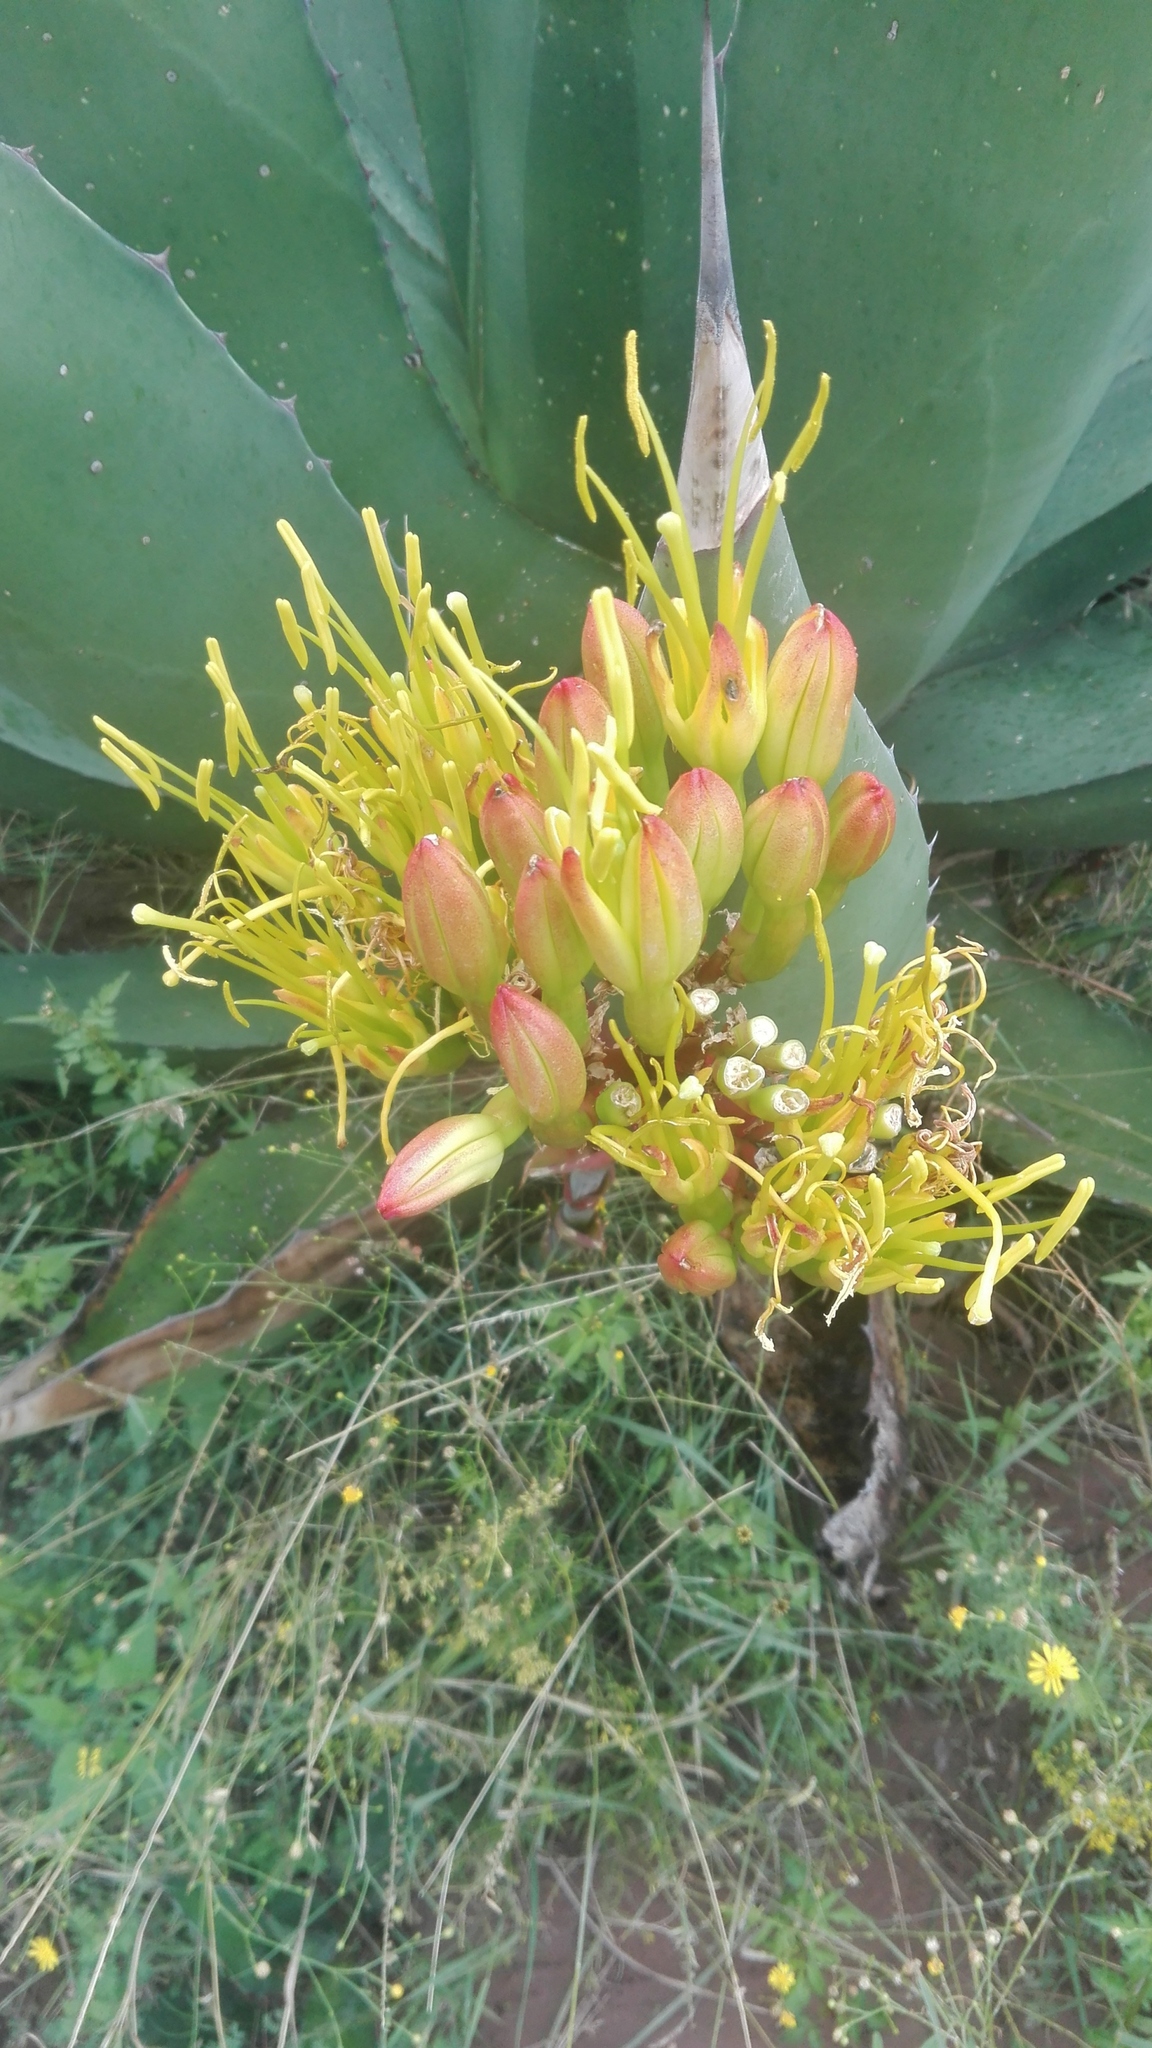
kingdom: Plantae
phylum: Tracheophyta
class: Liliopsida
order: Asparagales
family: Asparagaceae
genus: Agave
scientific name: Agave salmiana
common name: Pulque agave
